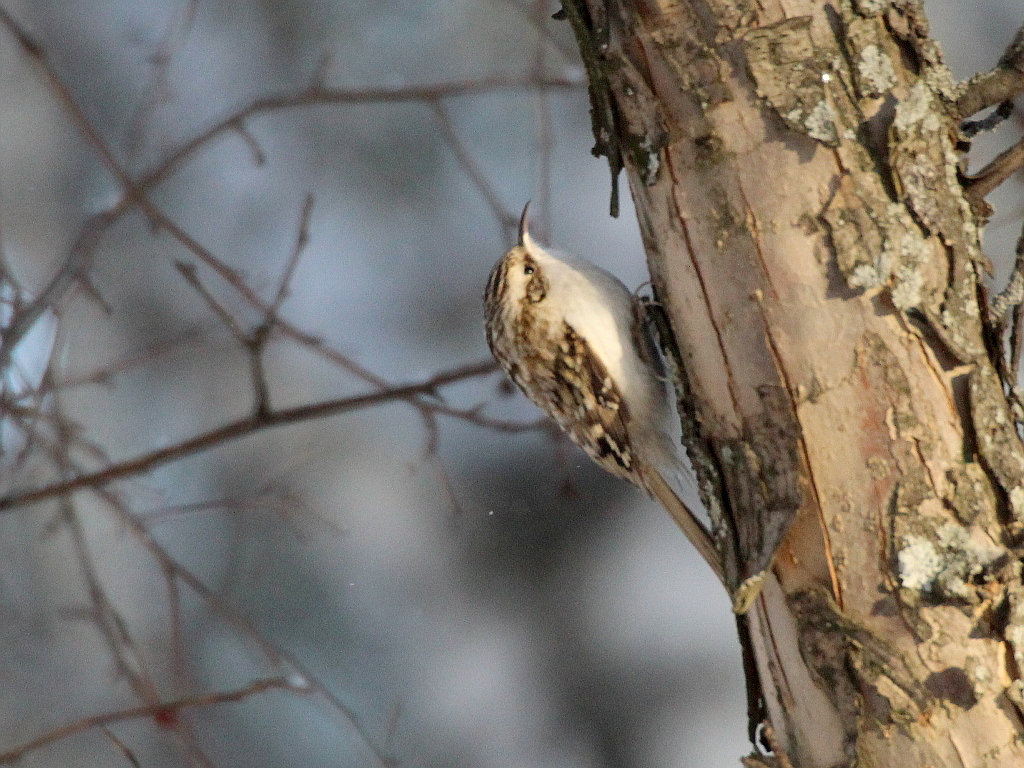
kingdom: Animalia
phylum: Chordata
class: Aves
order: Passeriformes
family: Certhiidae
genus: Certhia
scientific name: Certhia familiaris
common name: Eurasian treecreeper
